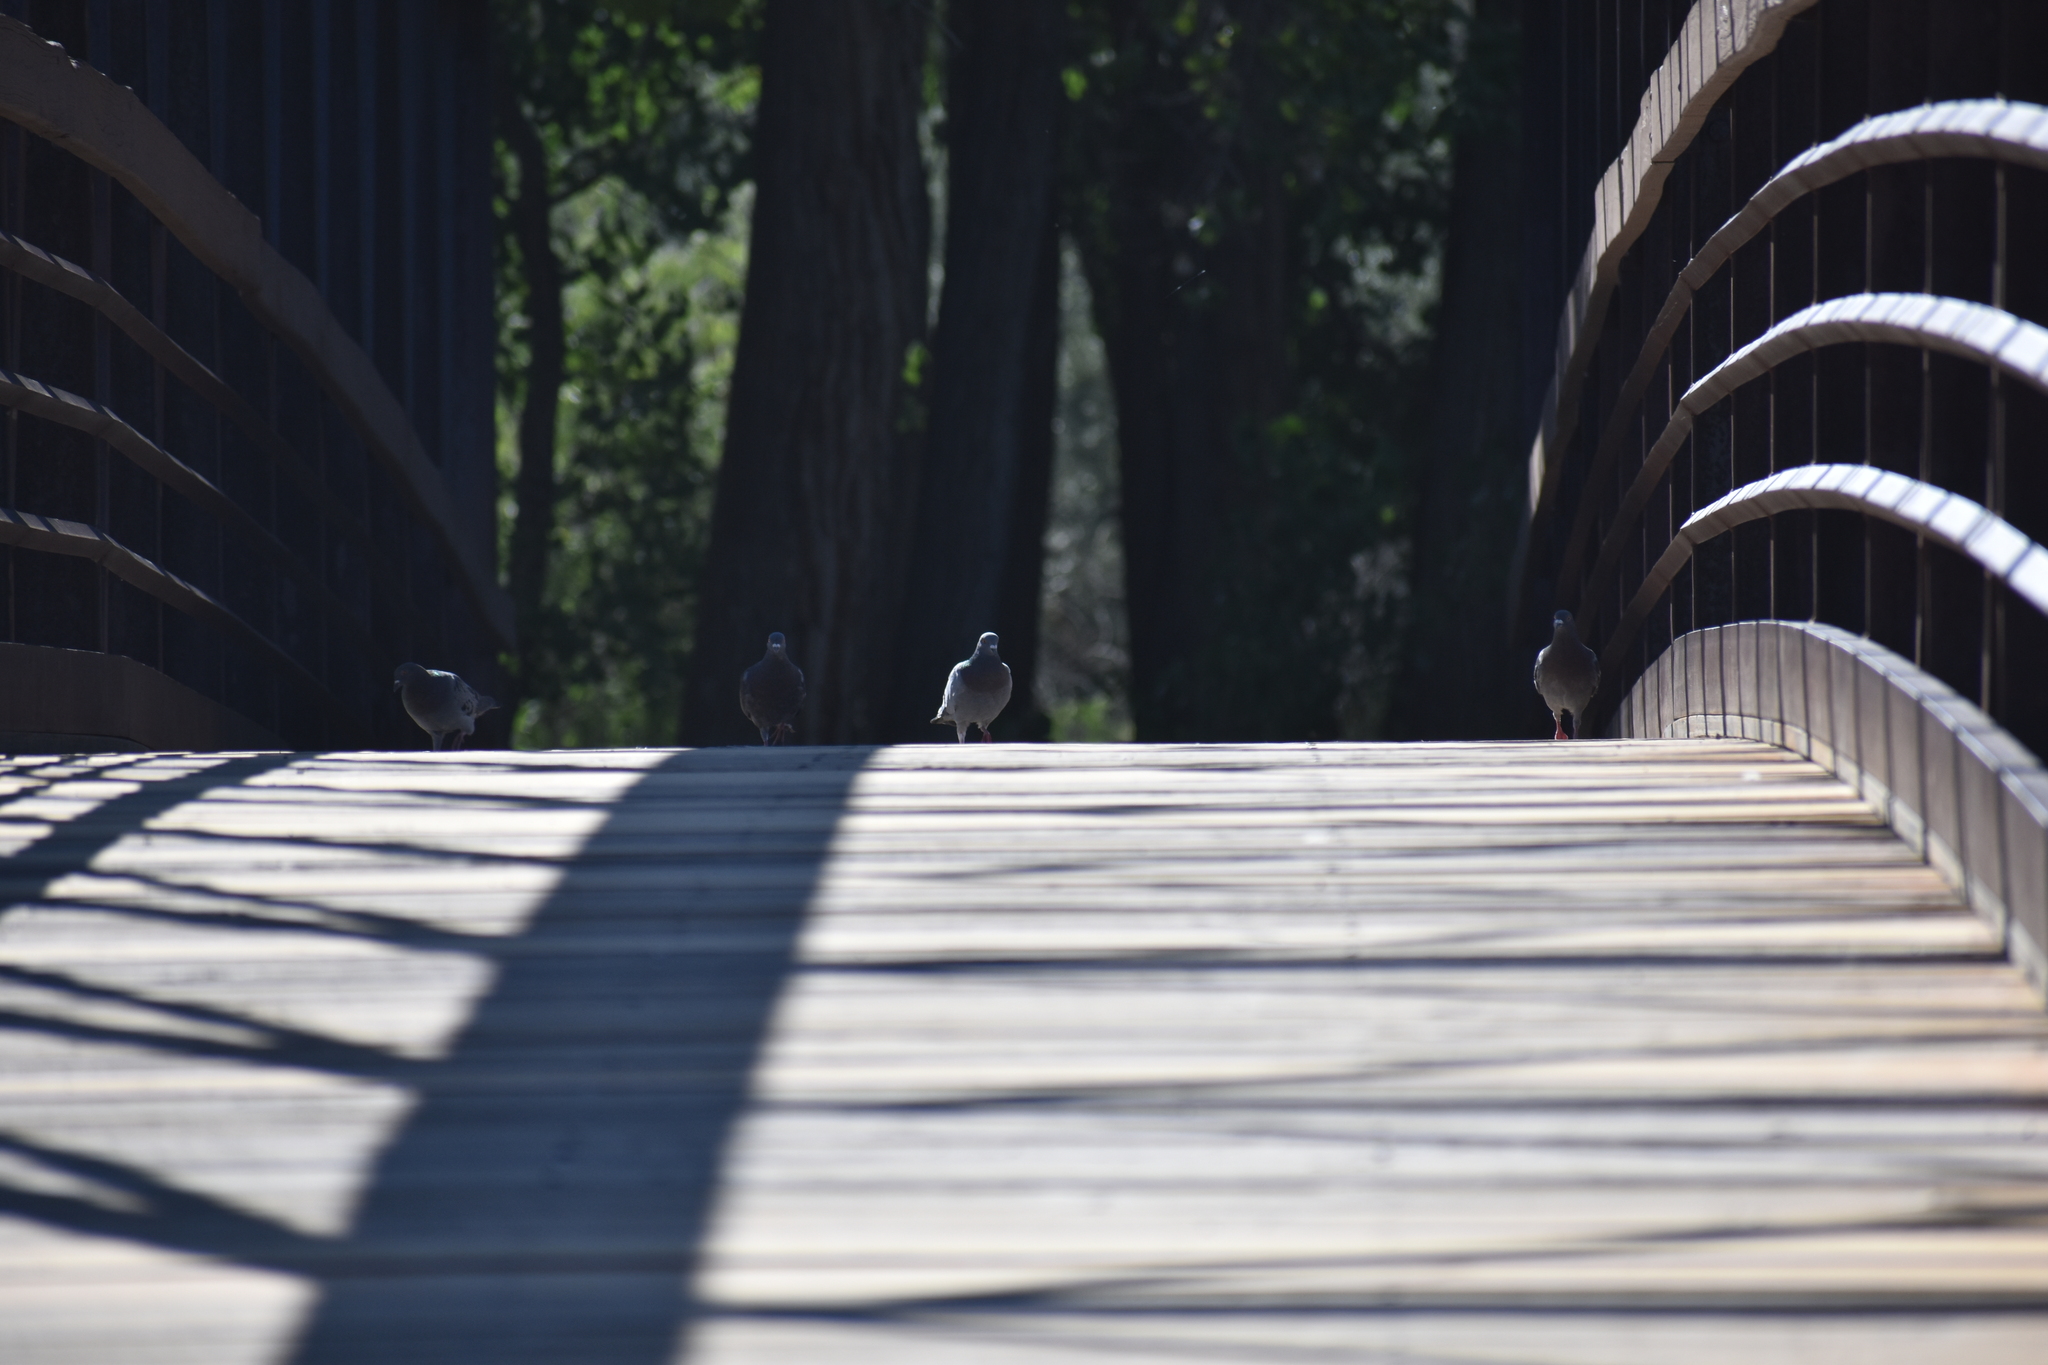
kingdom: Animalia
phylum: Chordata
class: Aves
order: Columbiformes
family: Columbidae
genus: Columba
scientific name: Columba livia
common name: Rock pigeon
